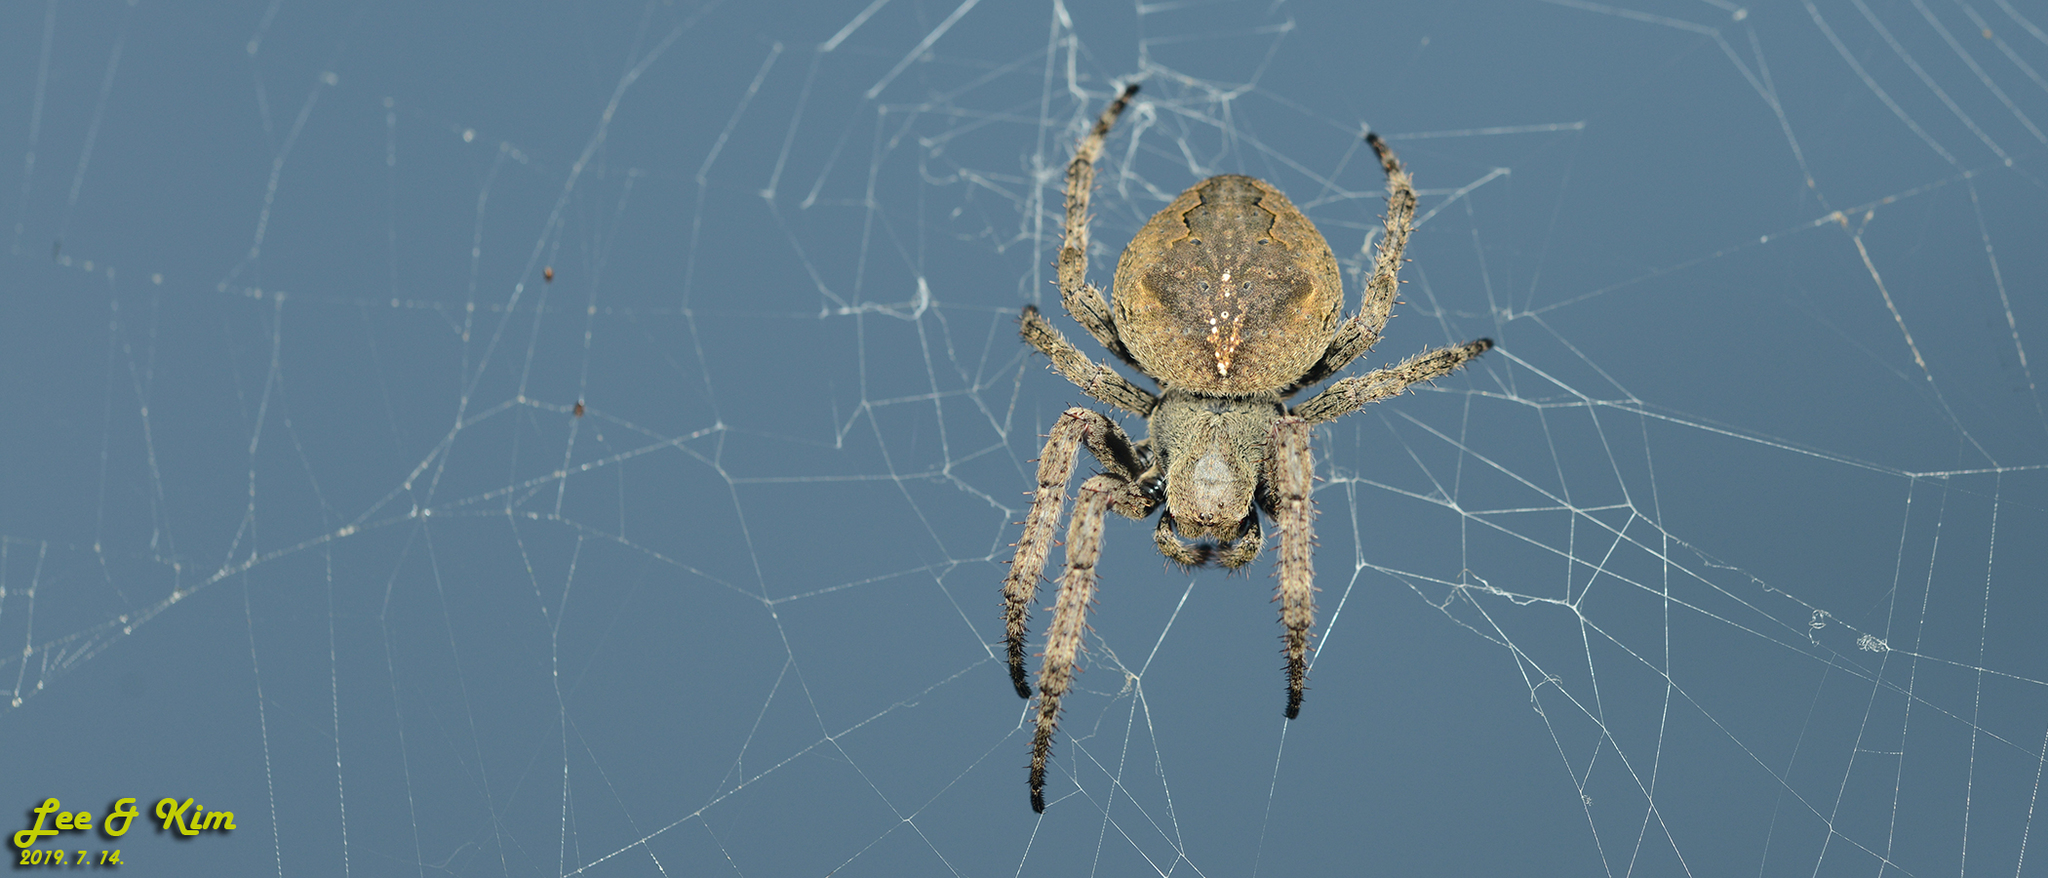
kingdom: Animalia
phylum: Arthropoda
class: Arachnida
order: Araneae
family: Araneidae
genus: Araneus
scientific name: Araneus ventricosus
